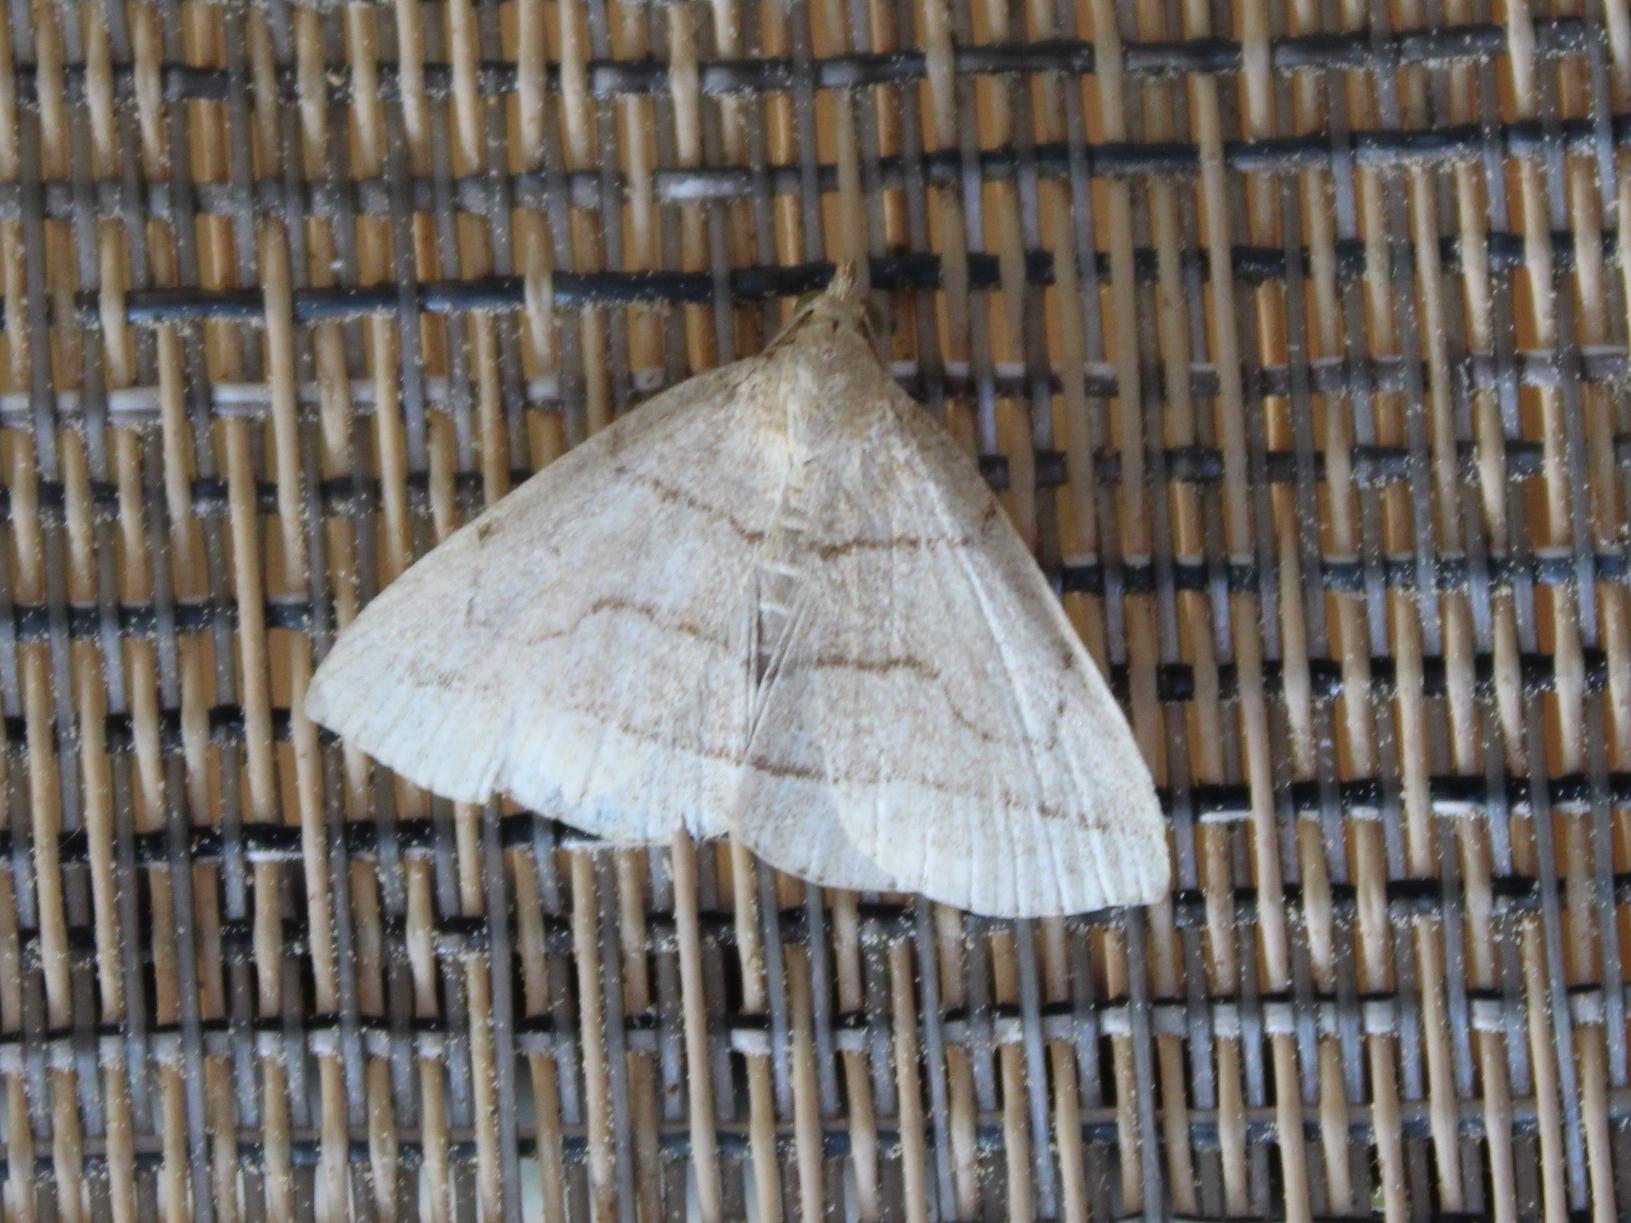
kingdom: Animalia
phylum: Arthropoda
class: Insecta
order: Lepidoptera
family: Erebidae
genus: Zanclognatha
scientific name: Zanclognatha cruralis
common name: Early fan-foot
